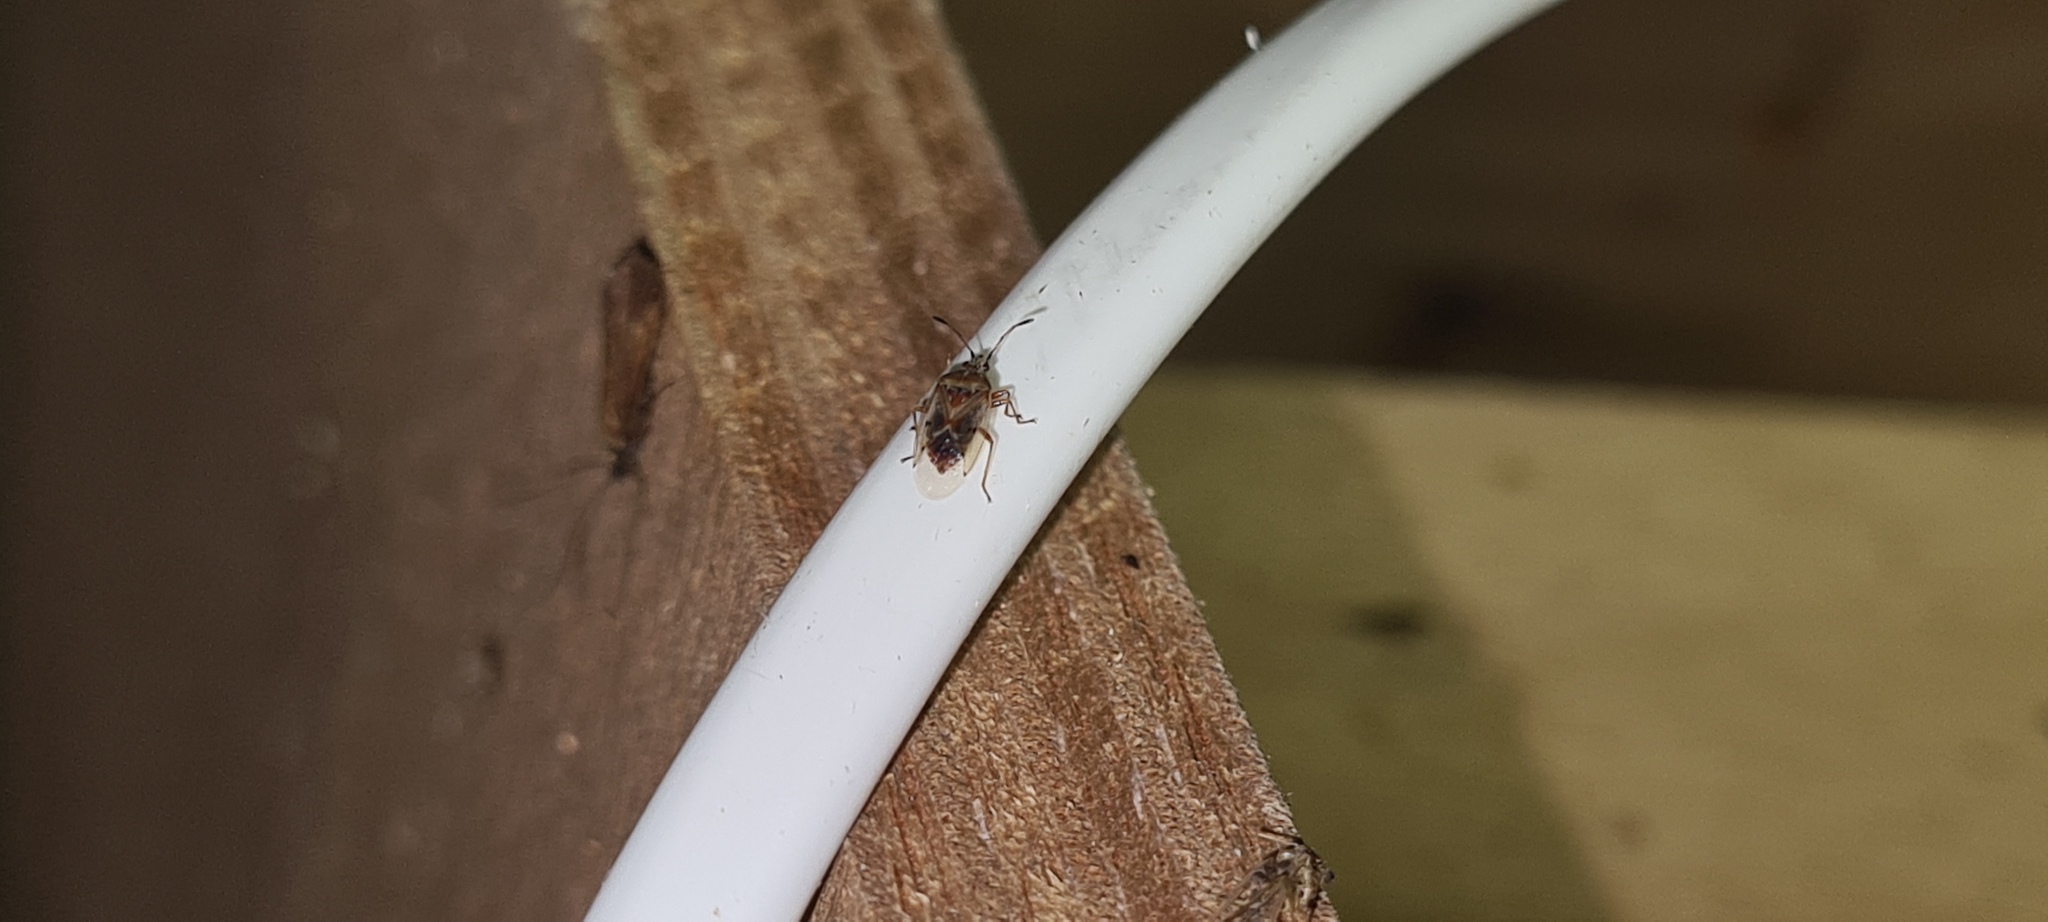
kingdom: Animalia
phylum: Arthropoda
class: Insecta
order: Hemiptera
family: Lygaeidae
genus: Kleidocerys
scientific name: Kleidocerys resedae
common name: Birch catkin bug
